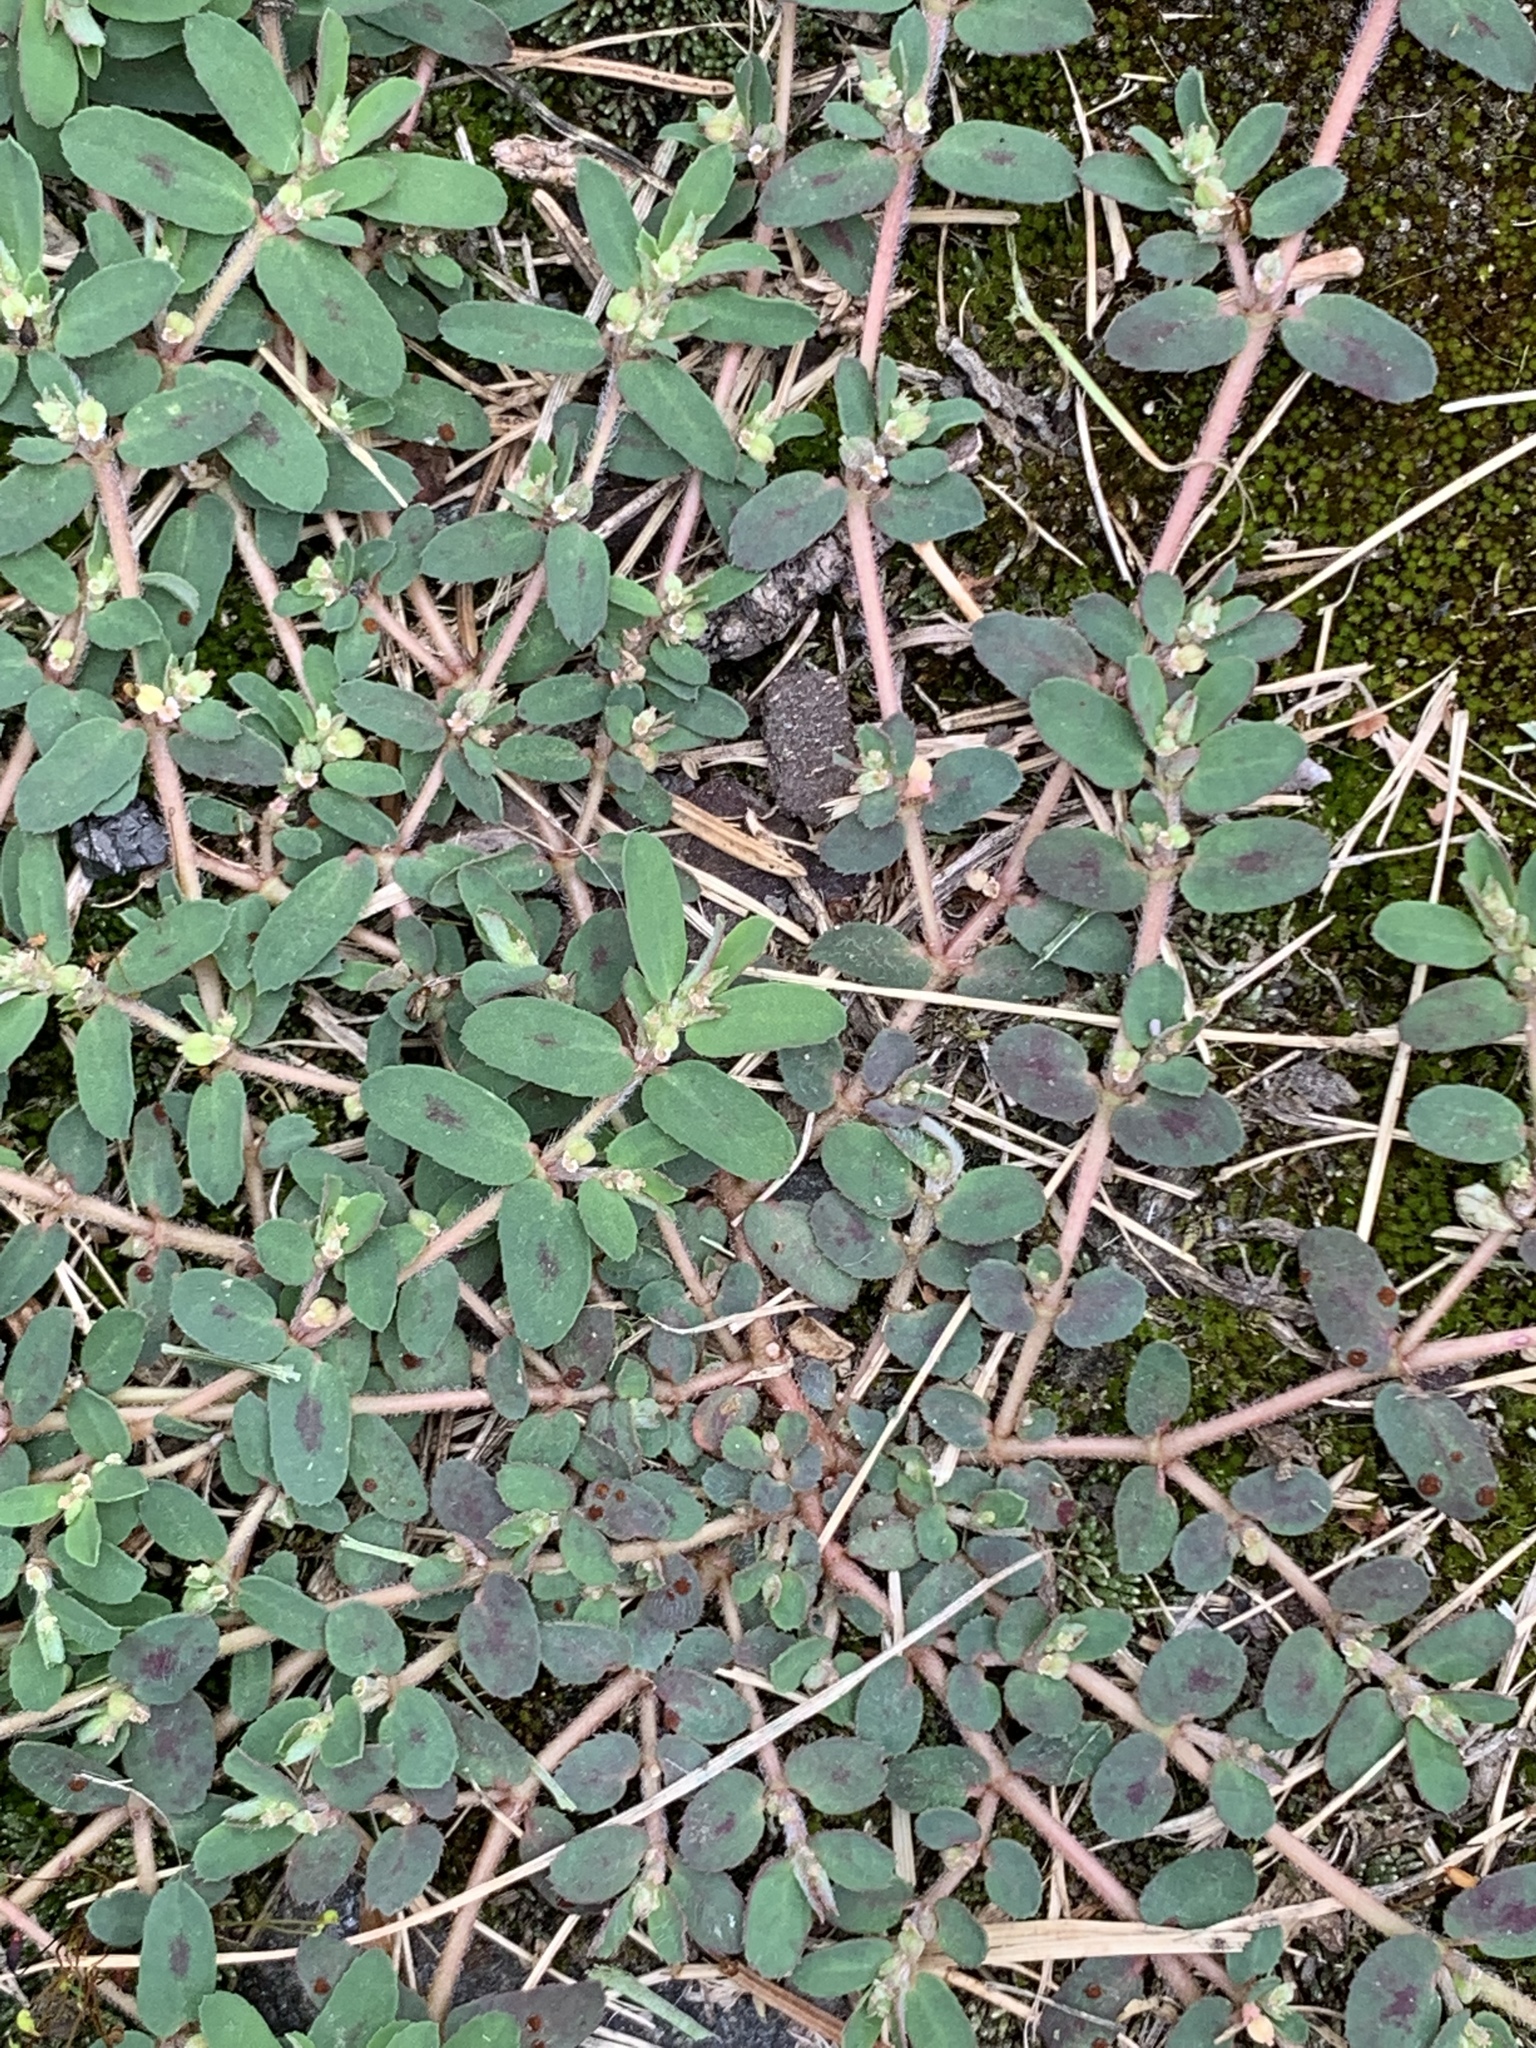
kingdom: Plantae
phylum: Tracheophyta
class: Magnoliopsida
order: Malpighiales
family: Euphorbiaceae
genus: Euphorbia
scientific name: Euphorbia maculata
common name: Spotted spurge
